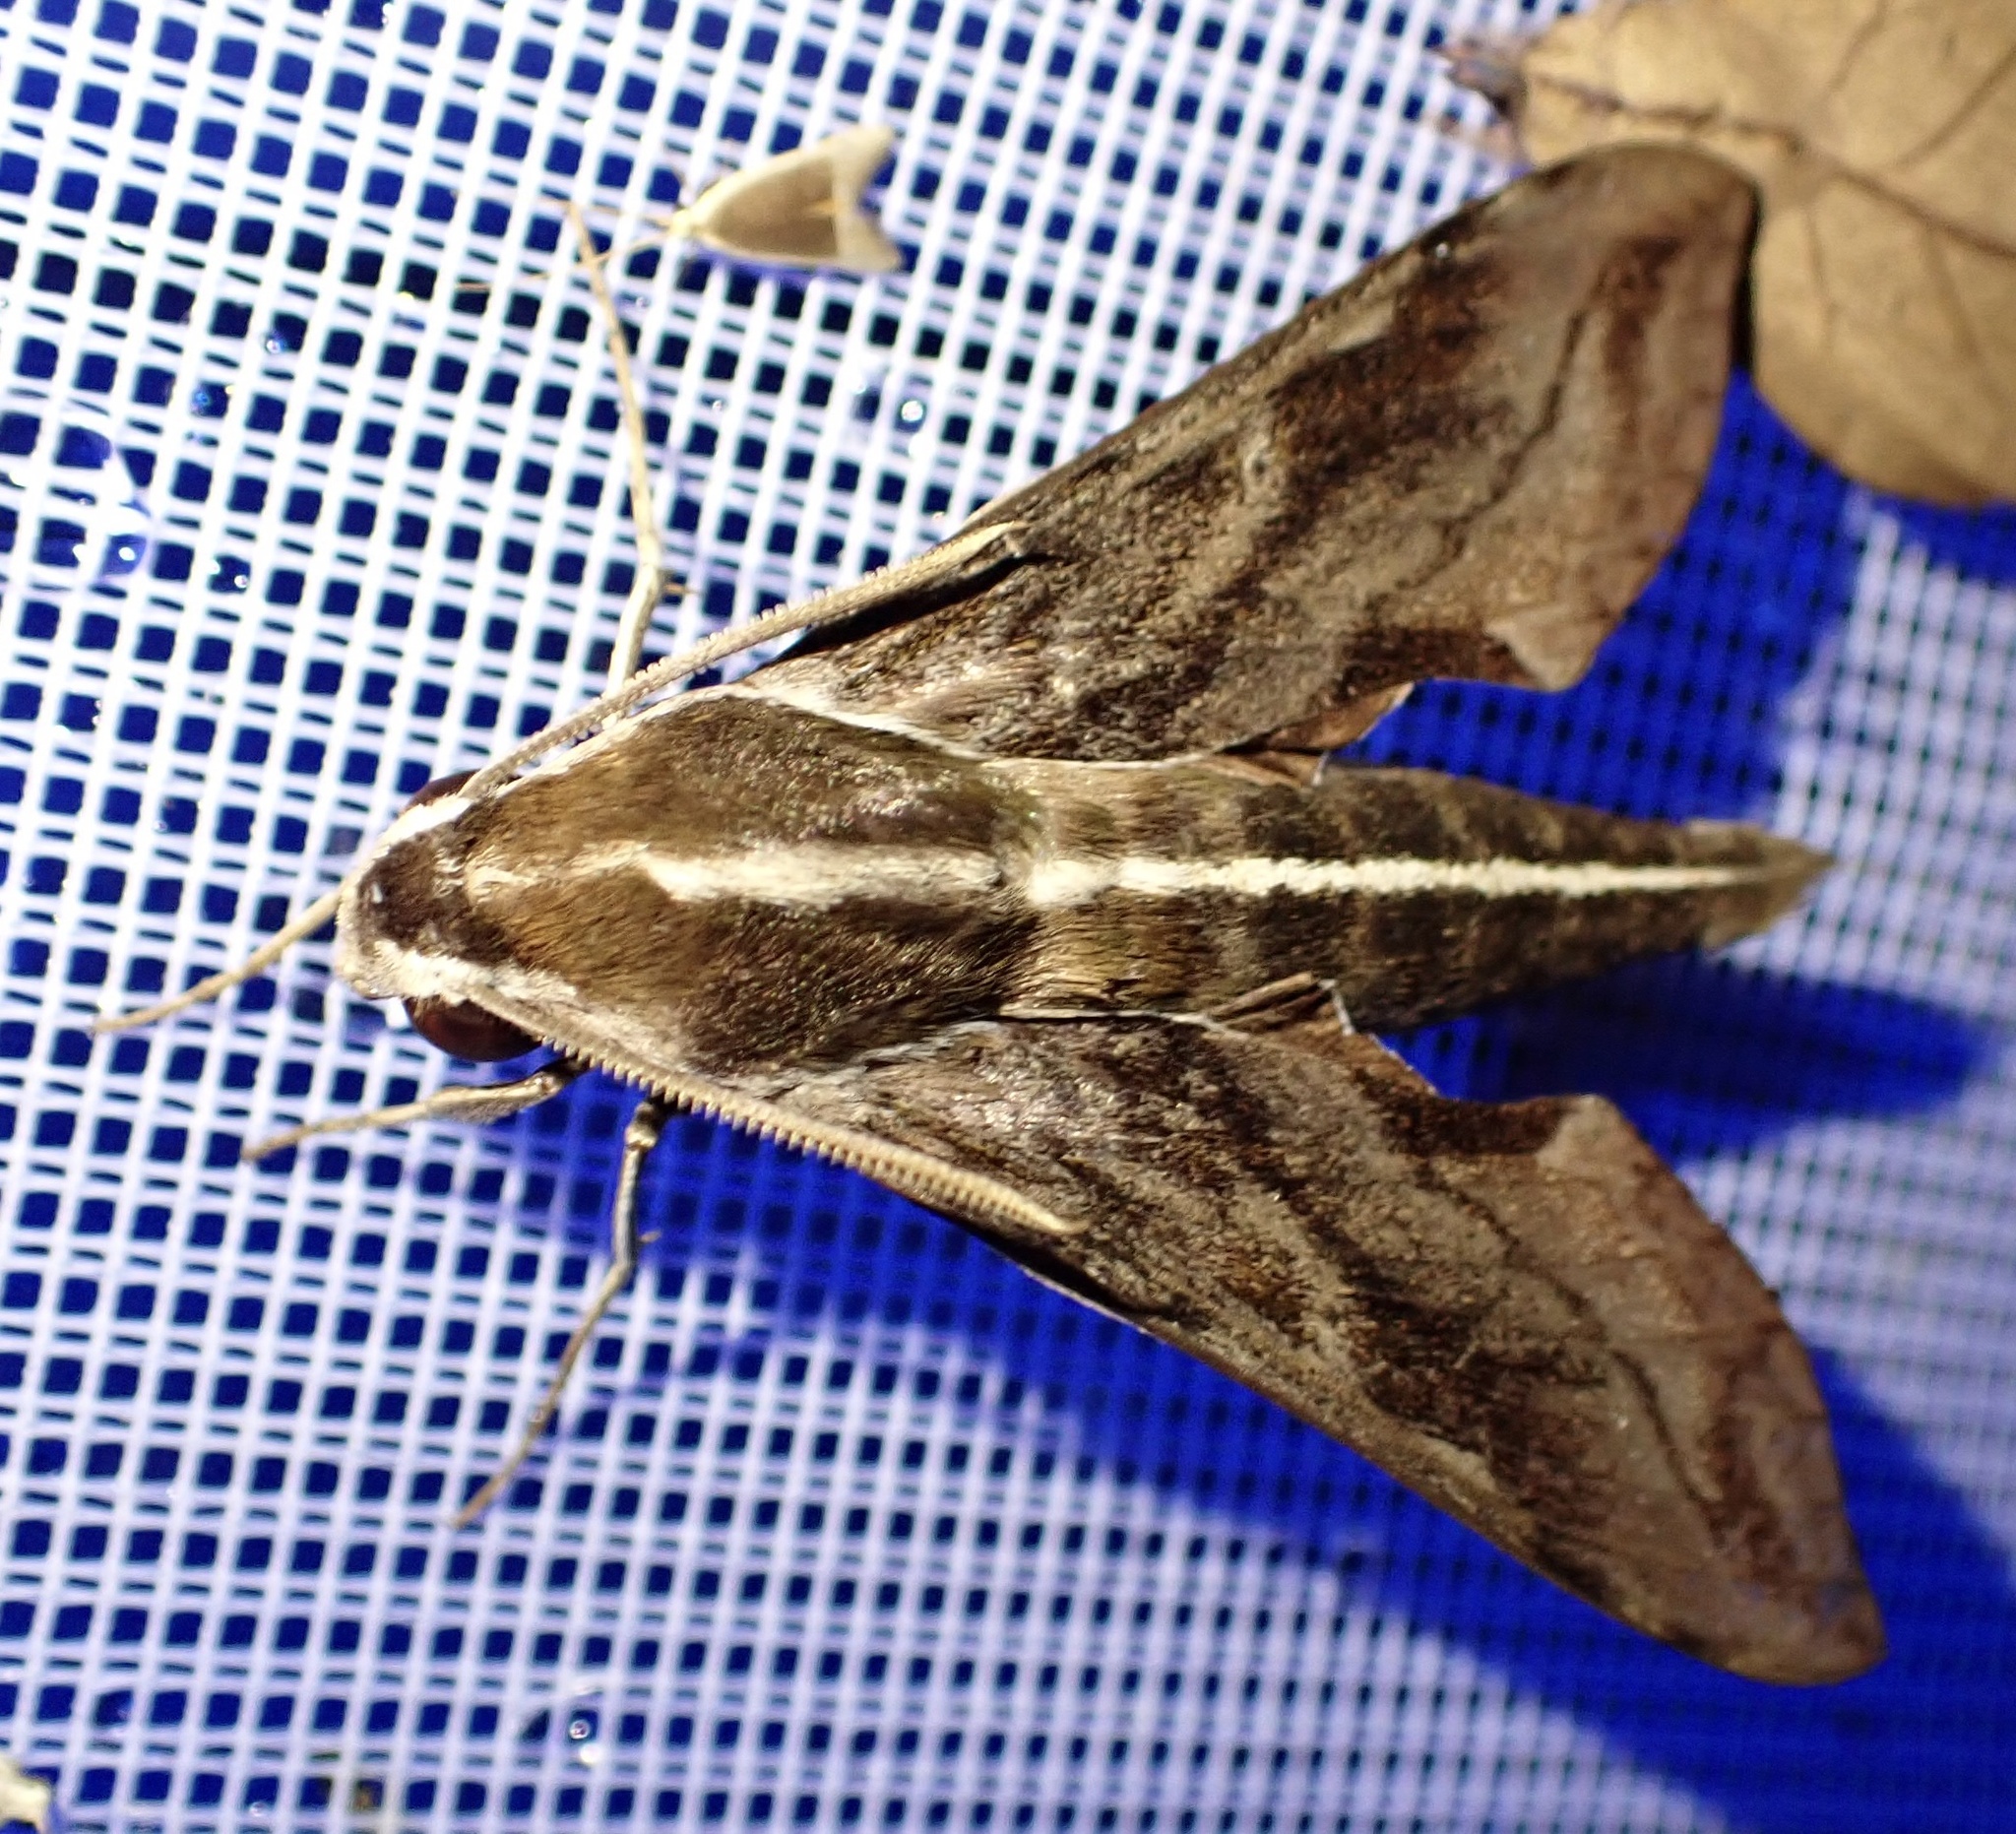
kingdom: Animalia
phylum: Arthropoda
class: Insecta
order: Lepidoptera
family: Sphingidae
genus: Hippotion
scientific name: Hippotion brunnea
